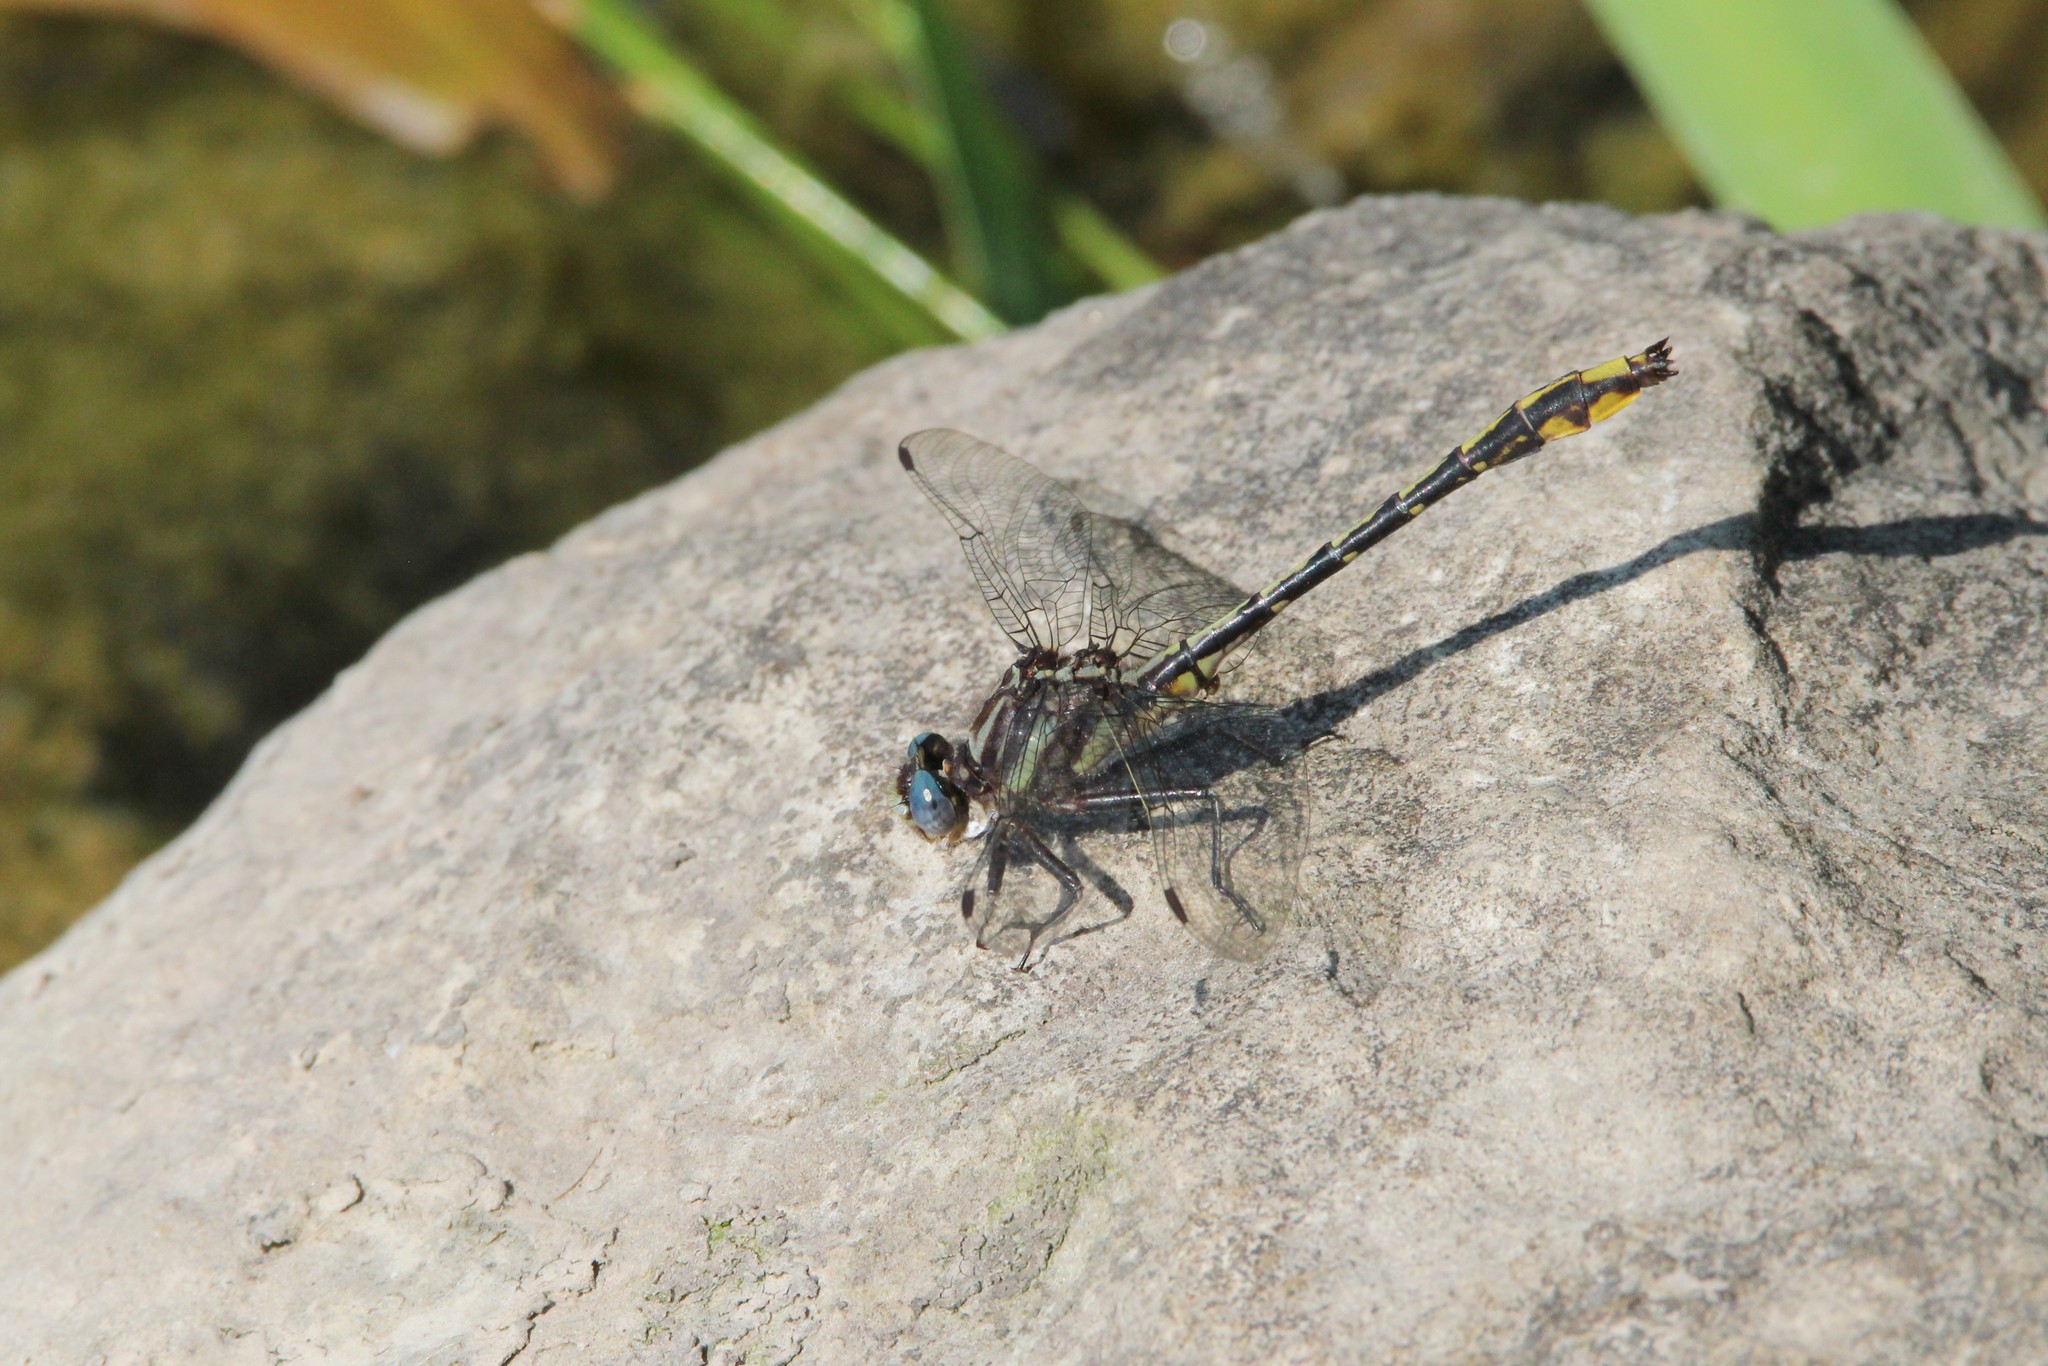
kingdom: Animalia
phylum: Arthropoda
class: Insecta
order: Odonata
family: Gomphidae
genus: Phanogomphus
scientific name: Phanogomphus exilis
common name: Lancet clubtail
